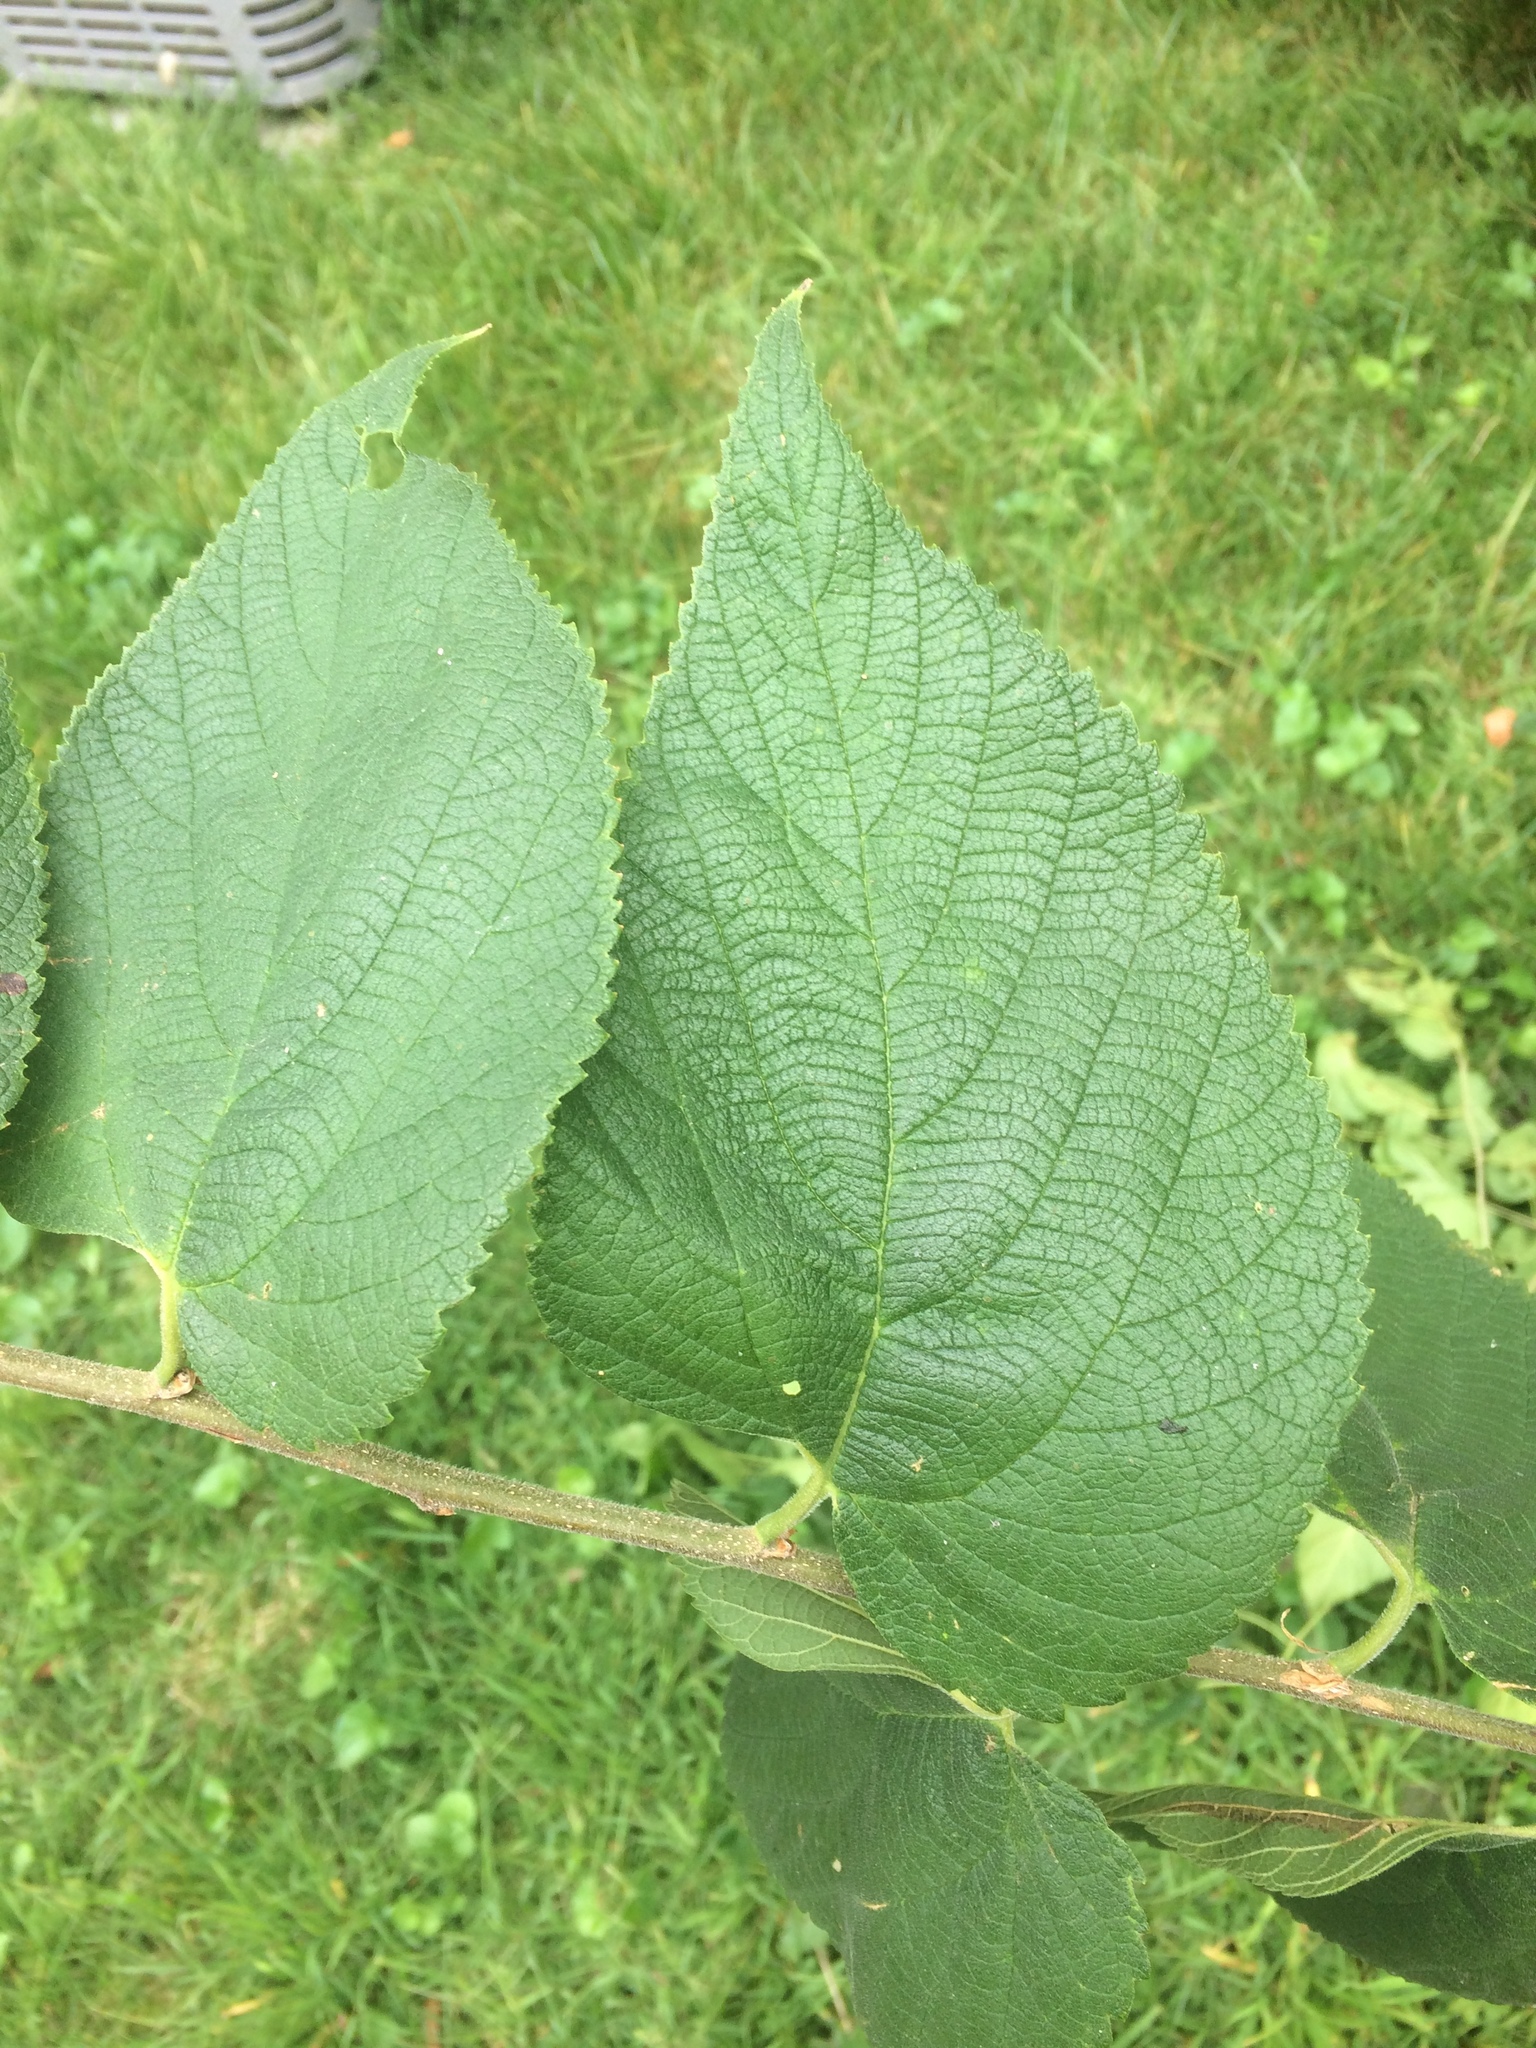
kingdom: Plantae
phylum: Tracheophyta
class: Magnoliopsida
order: Rosales
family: Cannabaceae
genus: Celtis
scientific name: Celtis occidentalis
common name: Common hackberry
